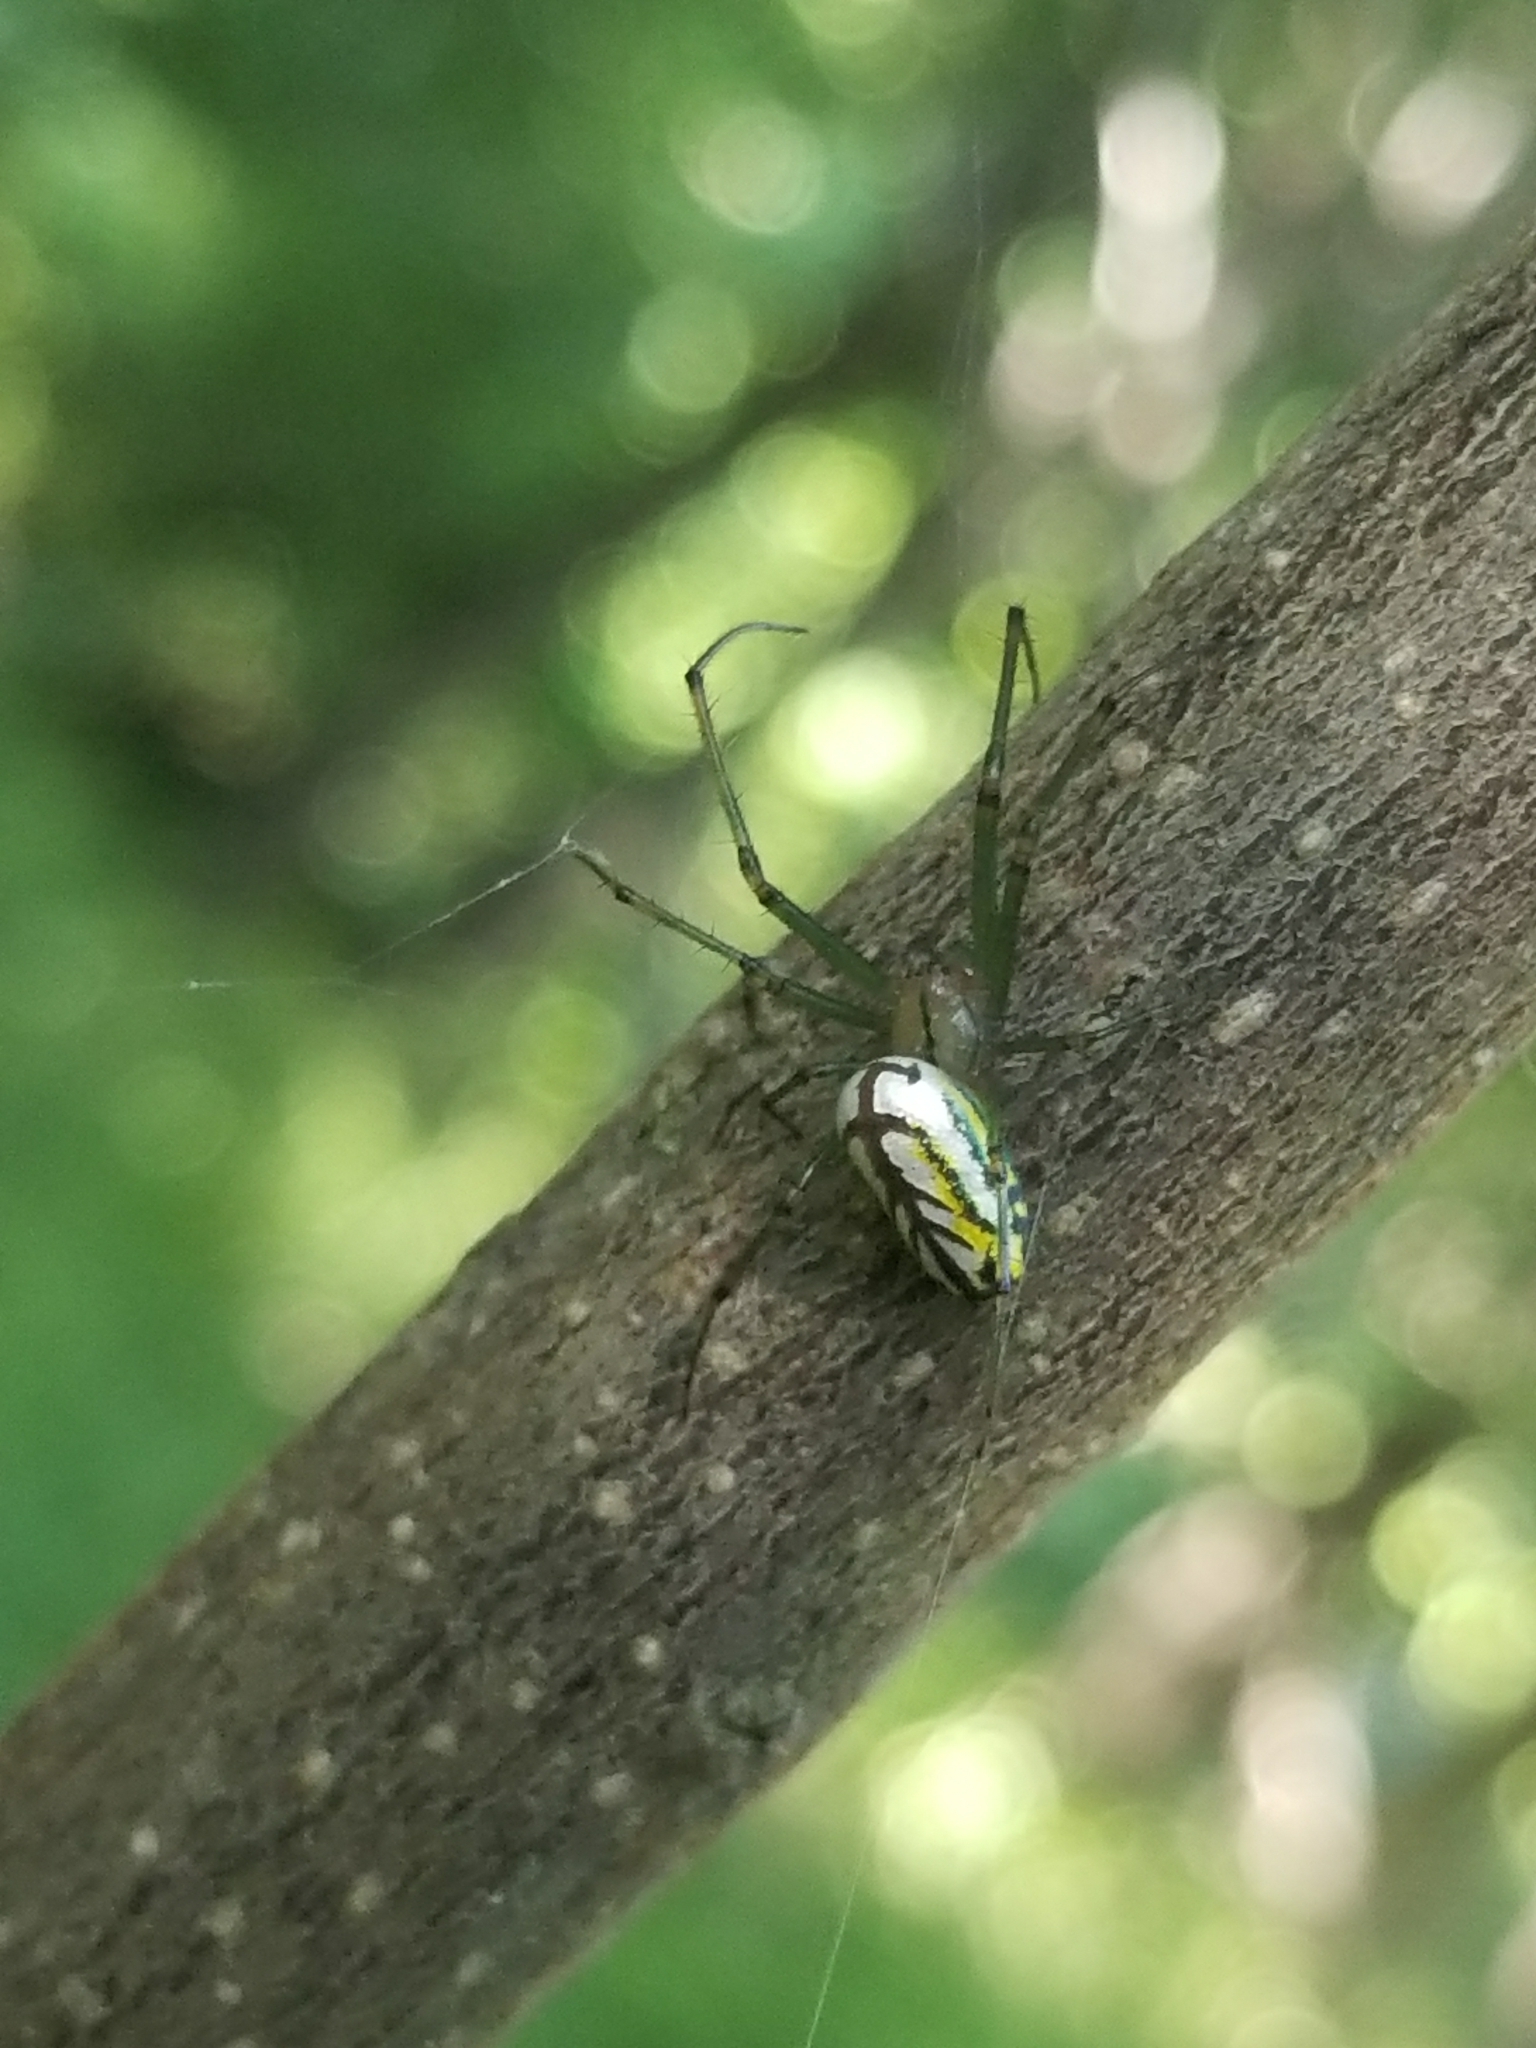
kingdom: Animalia
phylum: Arthropoda
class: Arachnida
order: Araneae
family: Tetragnathidae
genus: Leucauge
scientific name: Leucauge venusta
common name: Longjawed orb weavers
